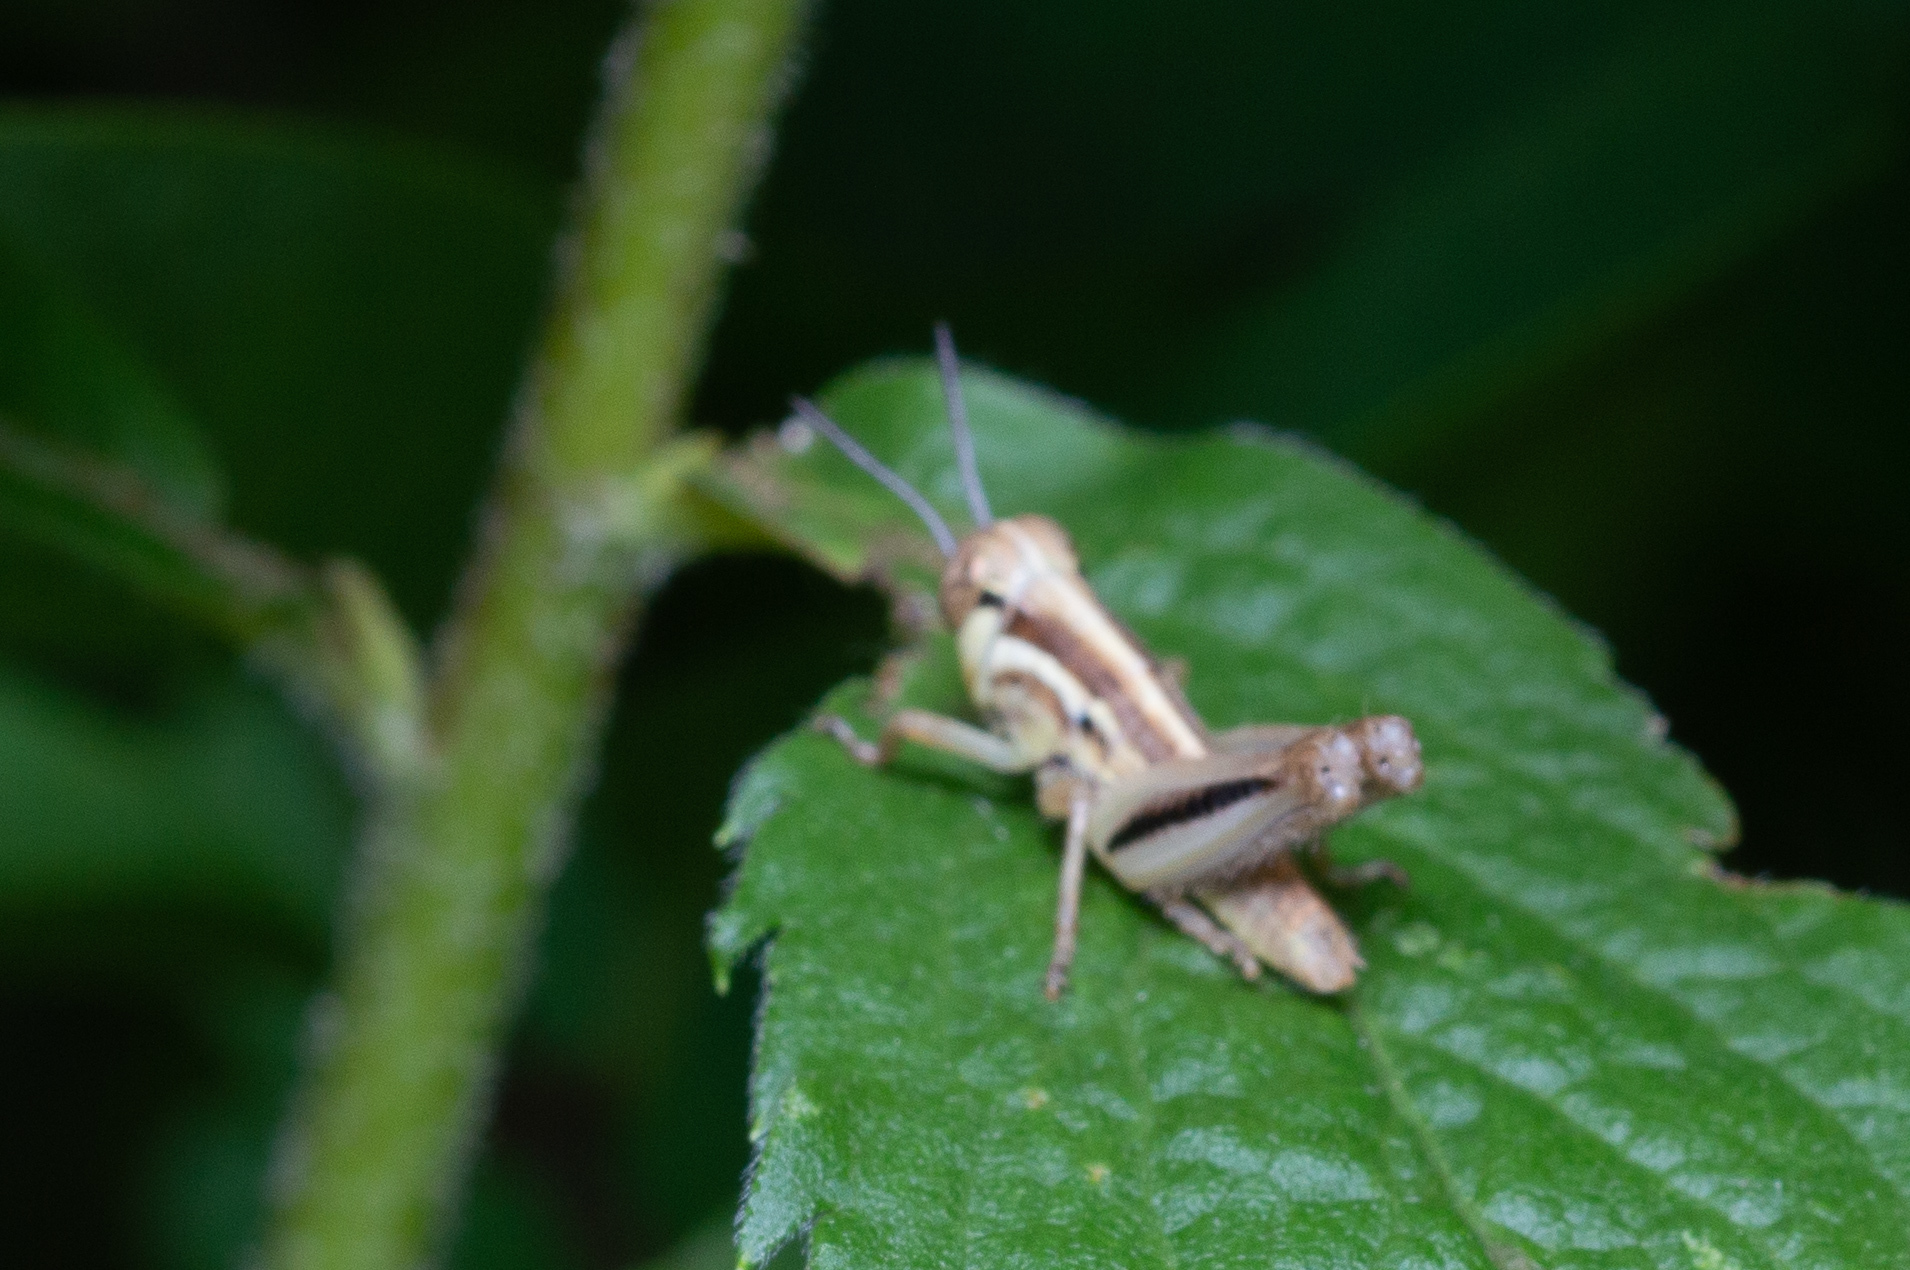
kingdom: Animalia
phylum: Arthropoda
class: Insecta
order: Orthoptera
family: Acrididae
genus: Melanoplus
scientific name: Melanoplus
